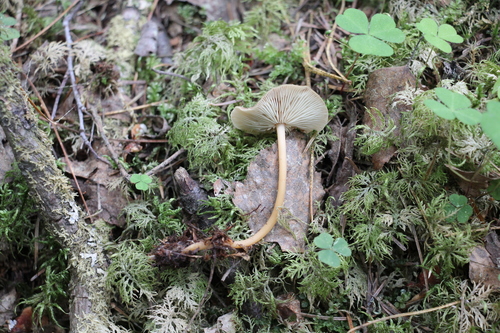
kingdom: Fungi
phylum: Basidiomycota
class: Agaricomycetes
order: Agaricales
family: Omphalotaceae
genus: Gymnopus
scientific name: Gymnopus dryophilus
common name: Penny top
